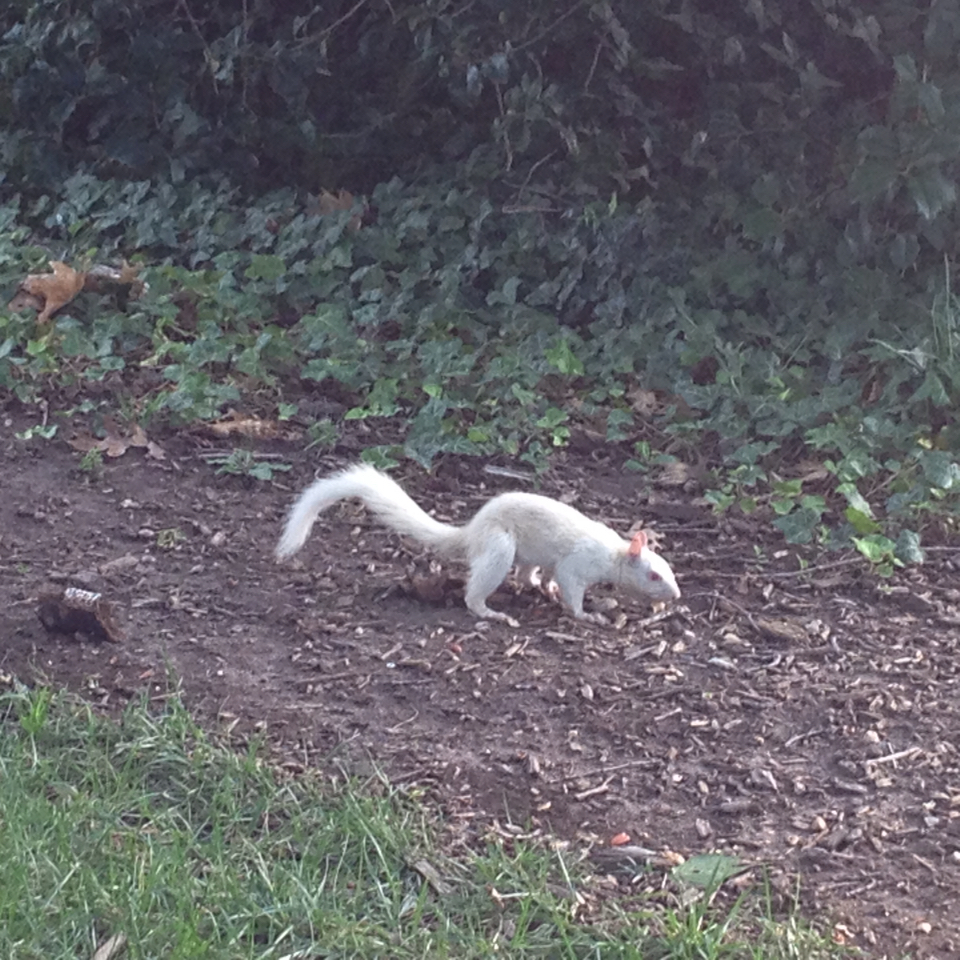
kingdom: Animalia
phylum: Chordata
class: Mammalia
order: Rodentia
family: Sciuridae
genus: Sciurus
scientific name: Sciurus carolinensis
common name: Eastern gray squirrel
